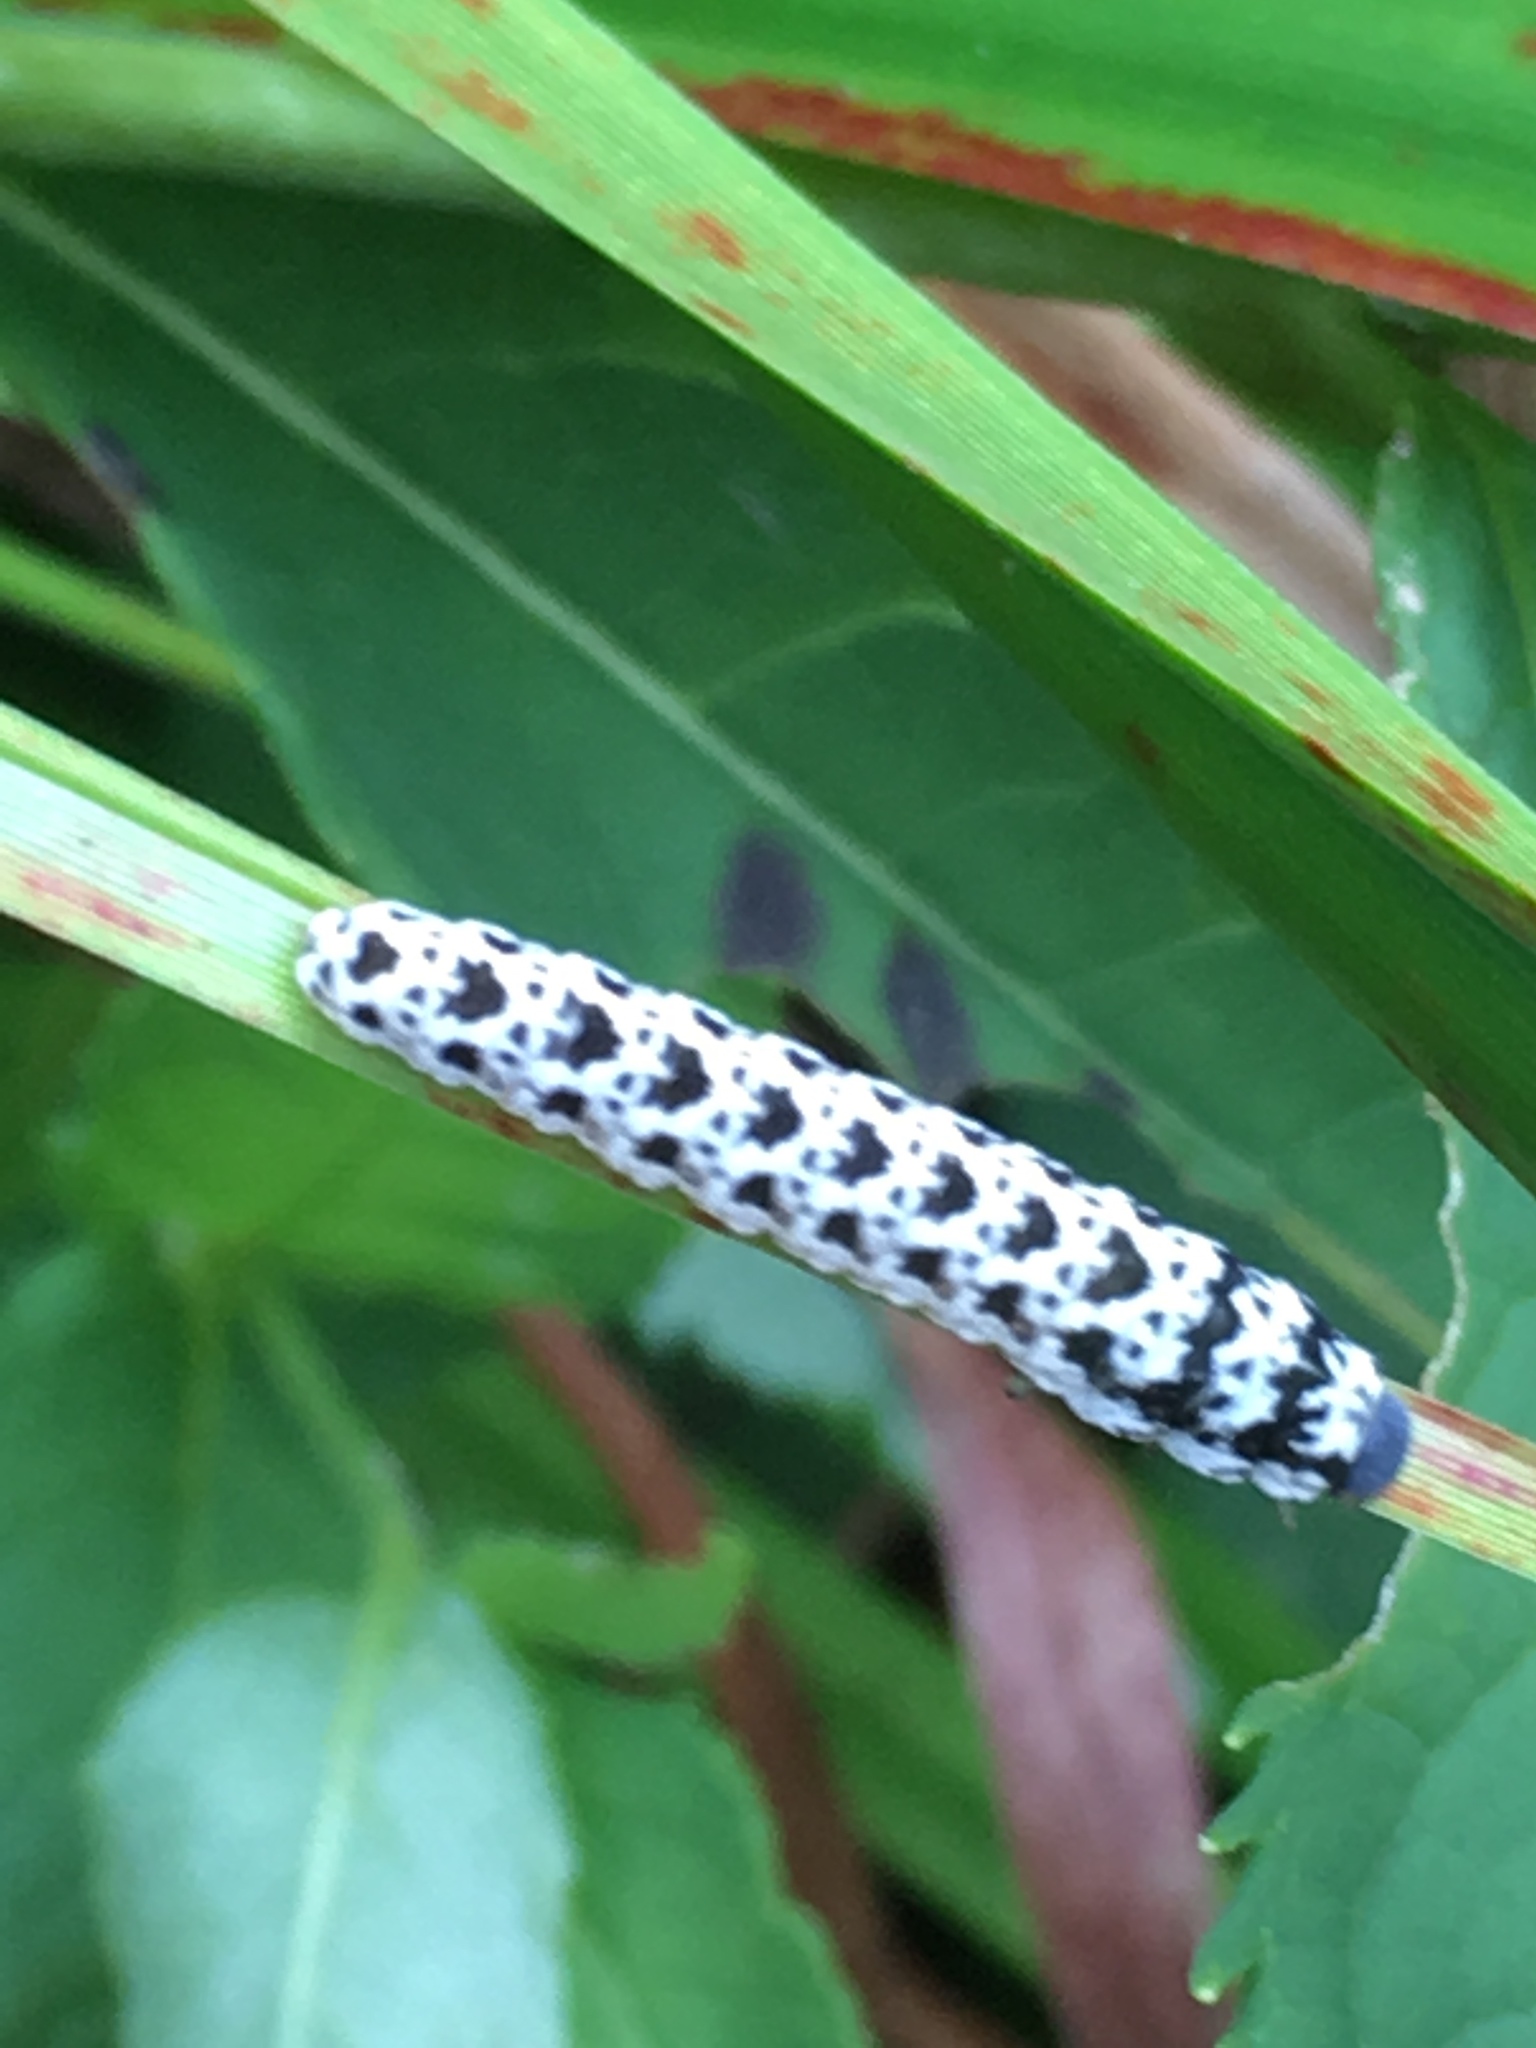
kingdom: Animalia
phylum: Arthropoda
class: Insecta
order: Hymenoptera
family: Tenthredinidae
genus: Tenthredo
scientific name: Tenthredo
